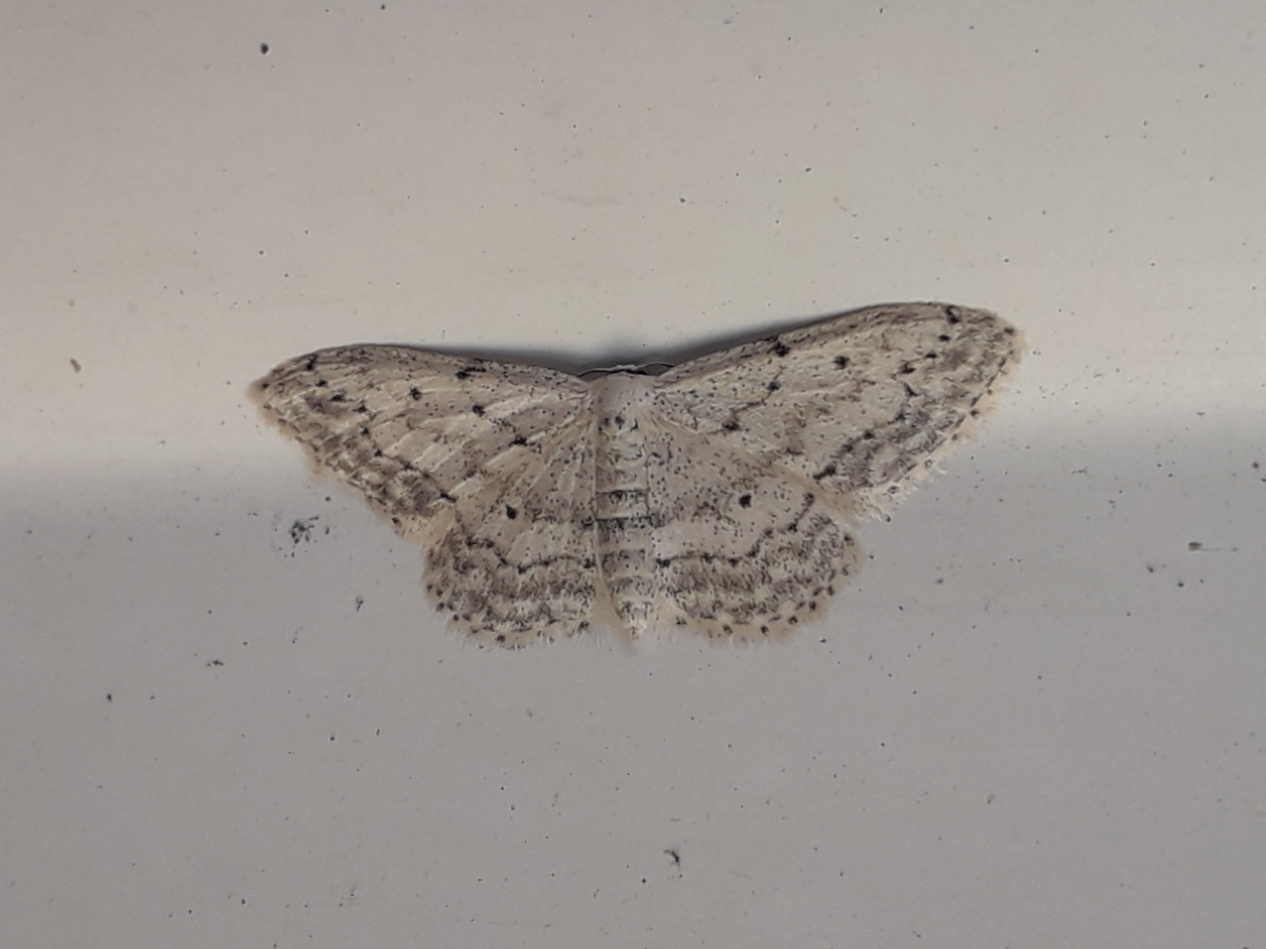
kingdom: Animalia
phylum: Arthropoda
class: Insecta
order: Lepidoptera
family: Geometridae
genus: Idaea
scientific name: Idaea seriata
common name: Small dusty wave
